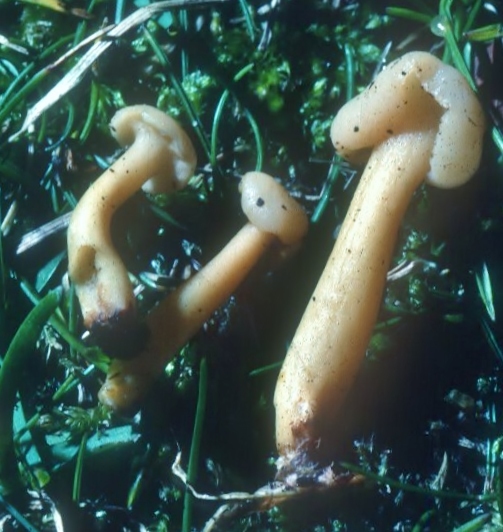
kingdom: Fungi
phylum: Ascomycota
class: Leotiomycetes
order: Rhytismatales
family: Cudoniaceae
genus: Cudonia
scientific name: Cudonia lutea
